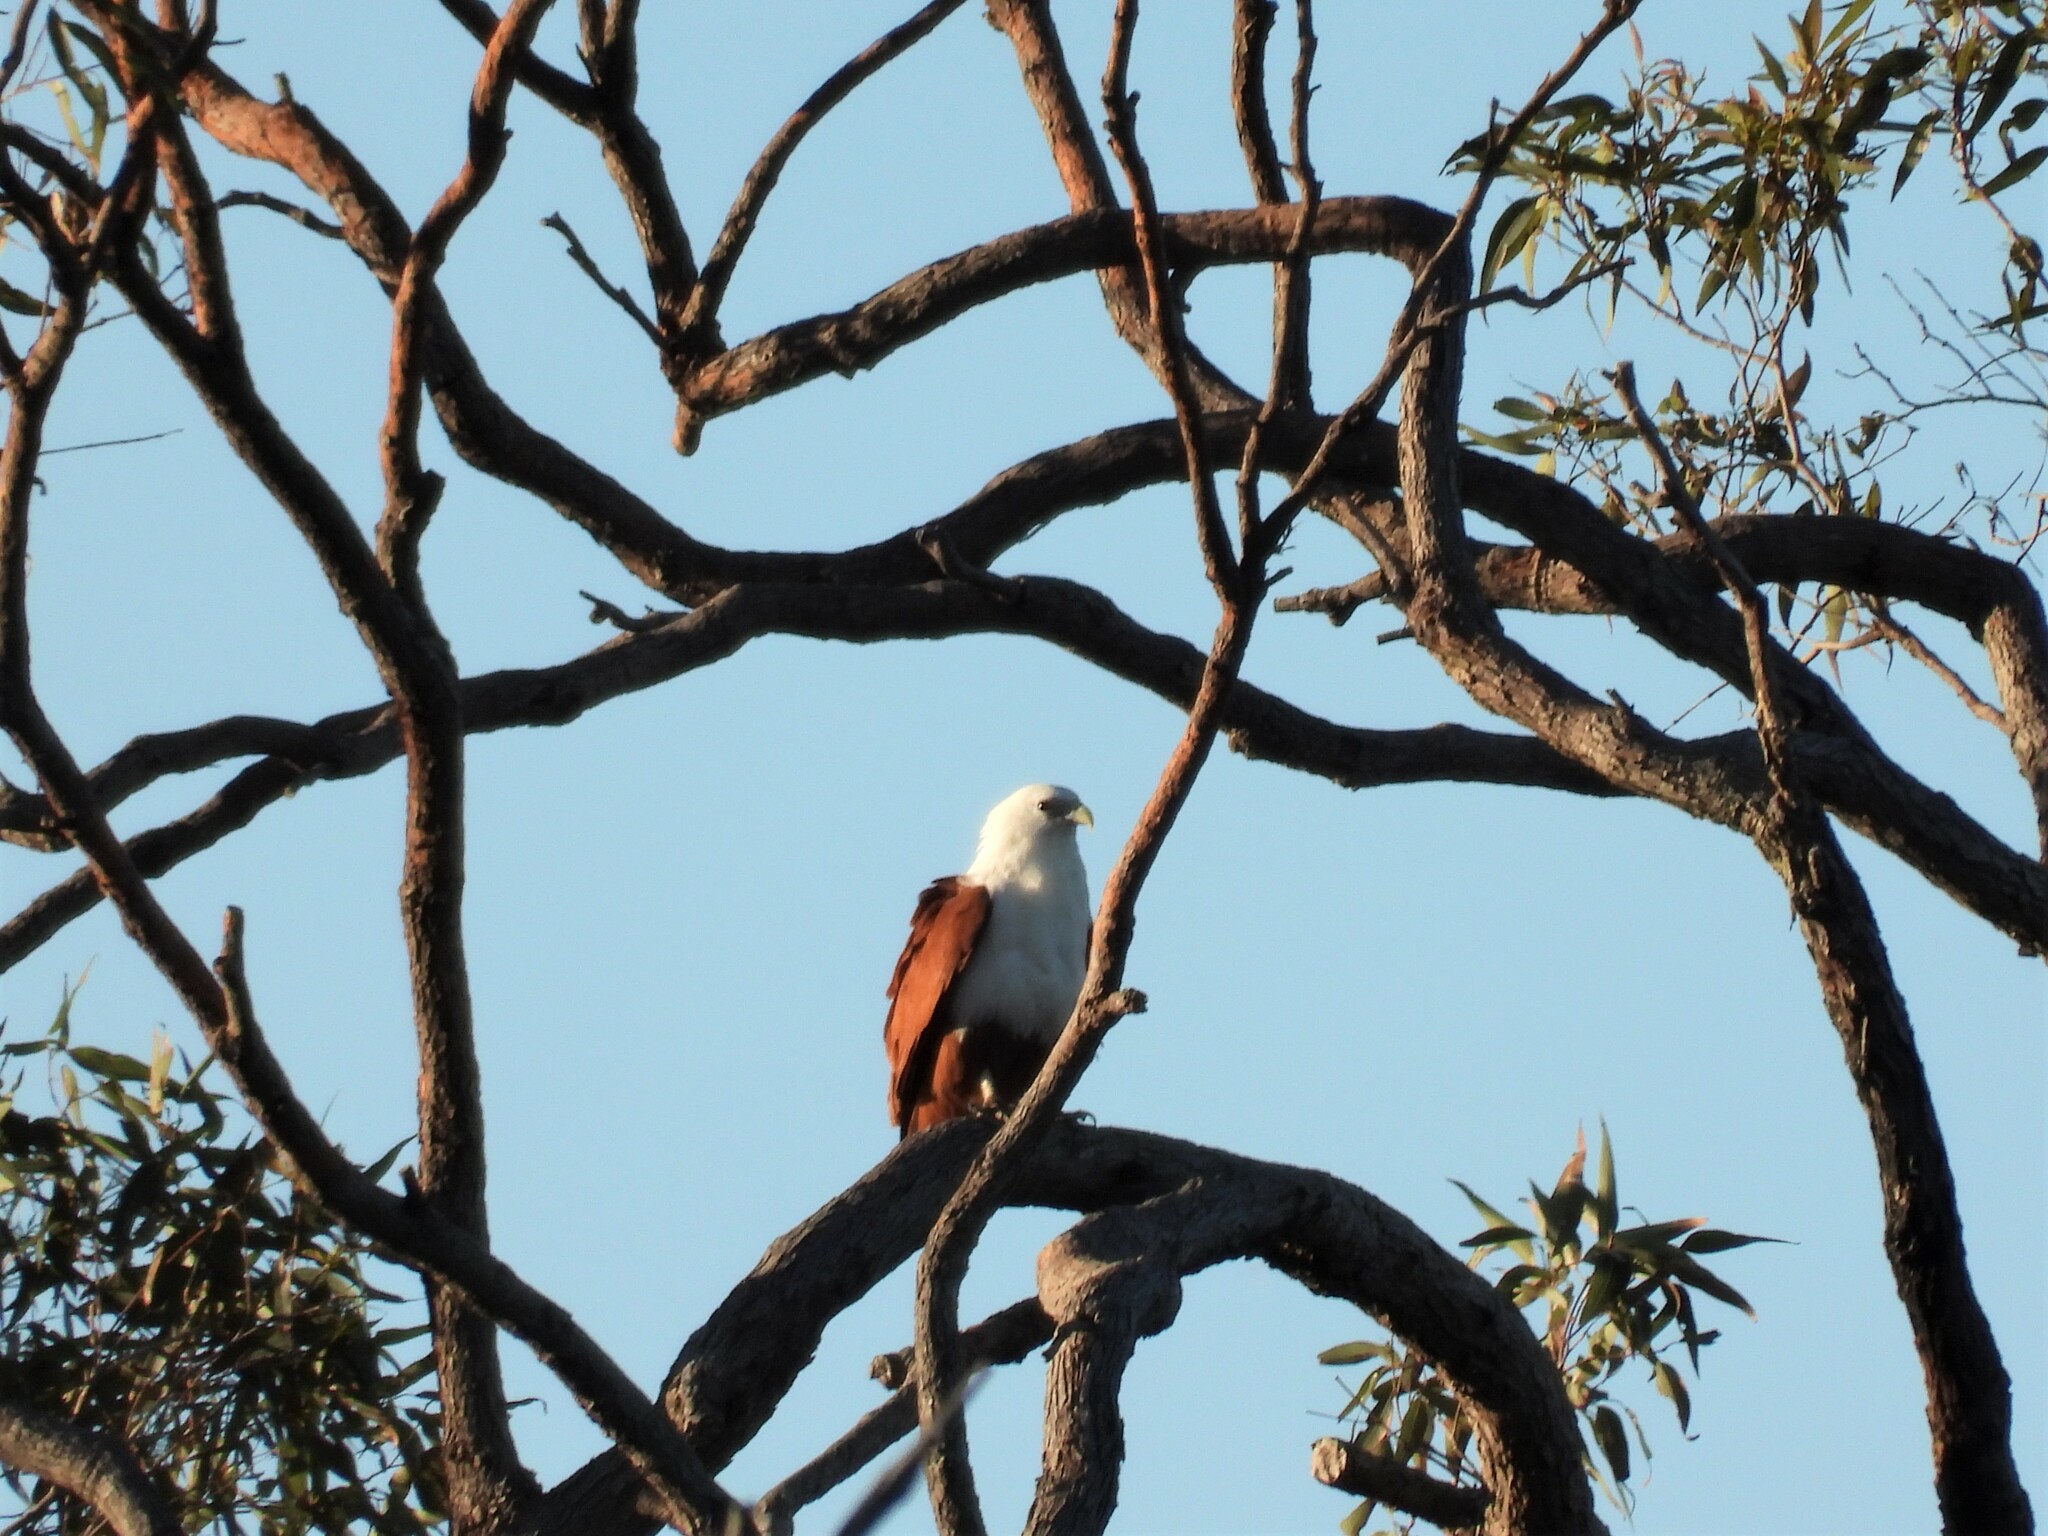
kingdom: Animalia
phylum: Chordata
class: Aves
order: Accipitriformes
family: Accipitridae
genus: Haliastur
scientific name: Haliastur indus
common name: Brahminy kite
